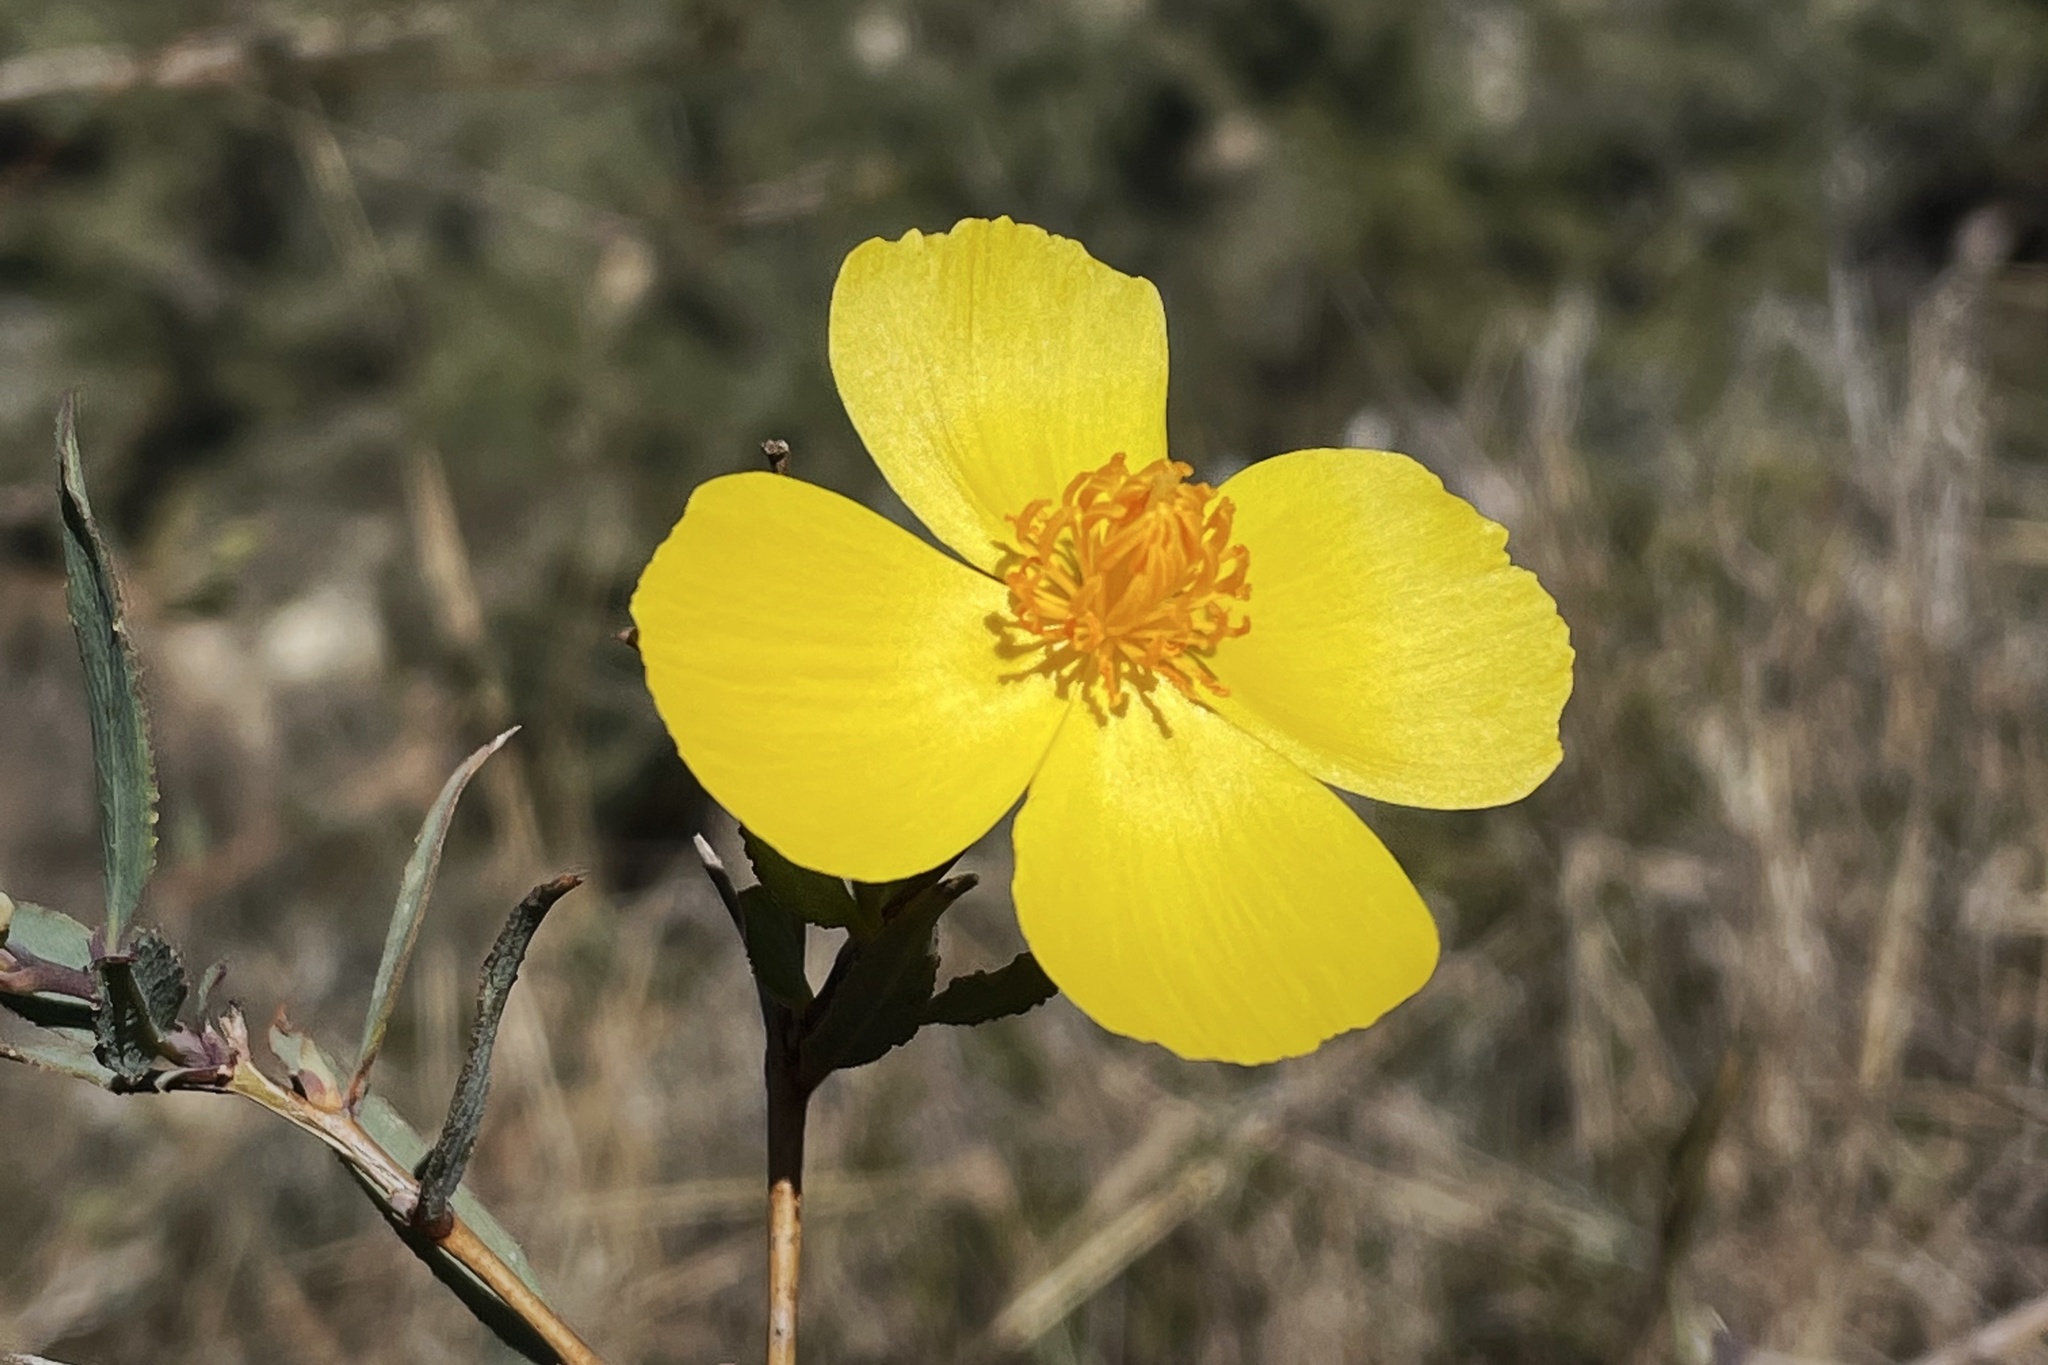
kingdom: Plantae
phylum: Tracheophyta
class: Magnoliopsida
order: Ranunculales
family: Papaveraceae
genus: Dendromecon
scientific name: Dendromecon rigida
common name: Tree poppy
